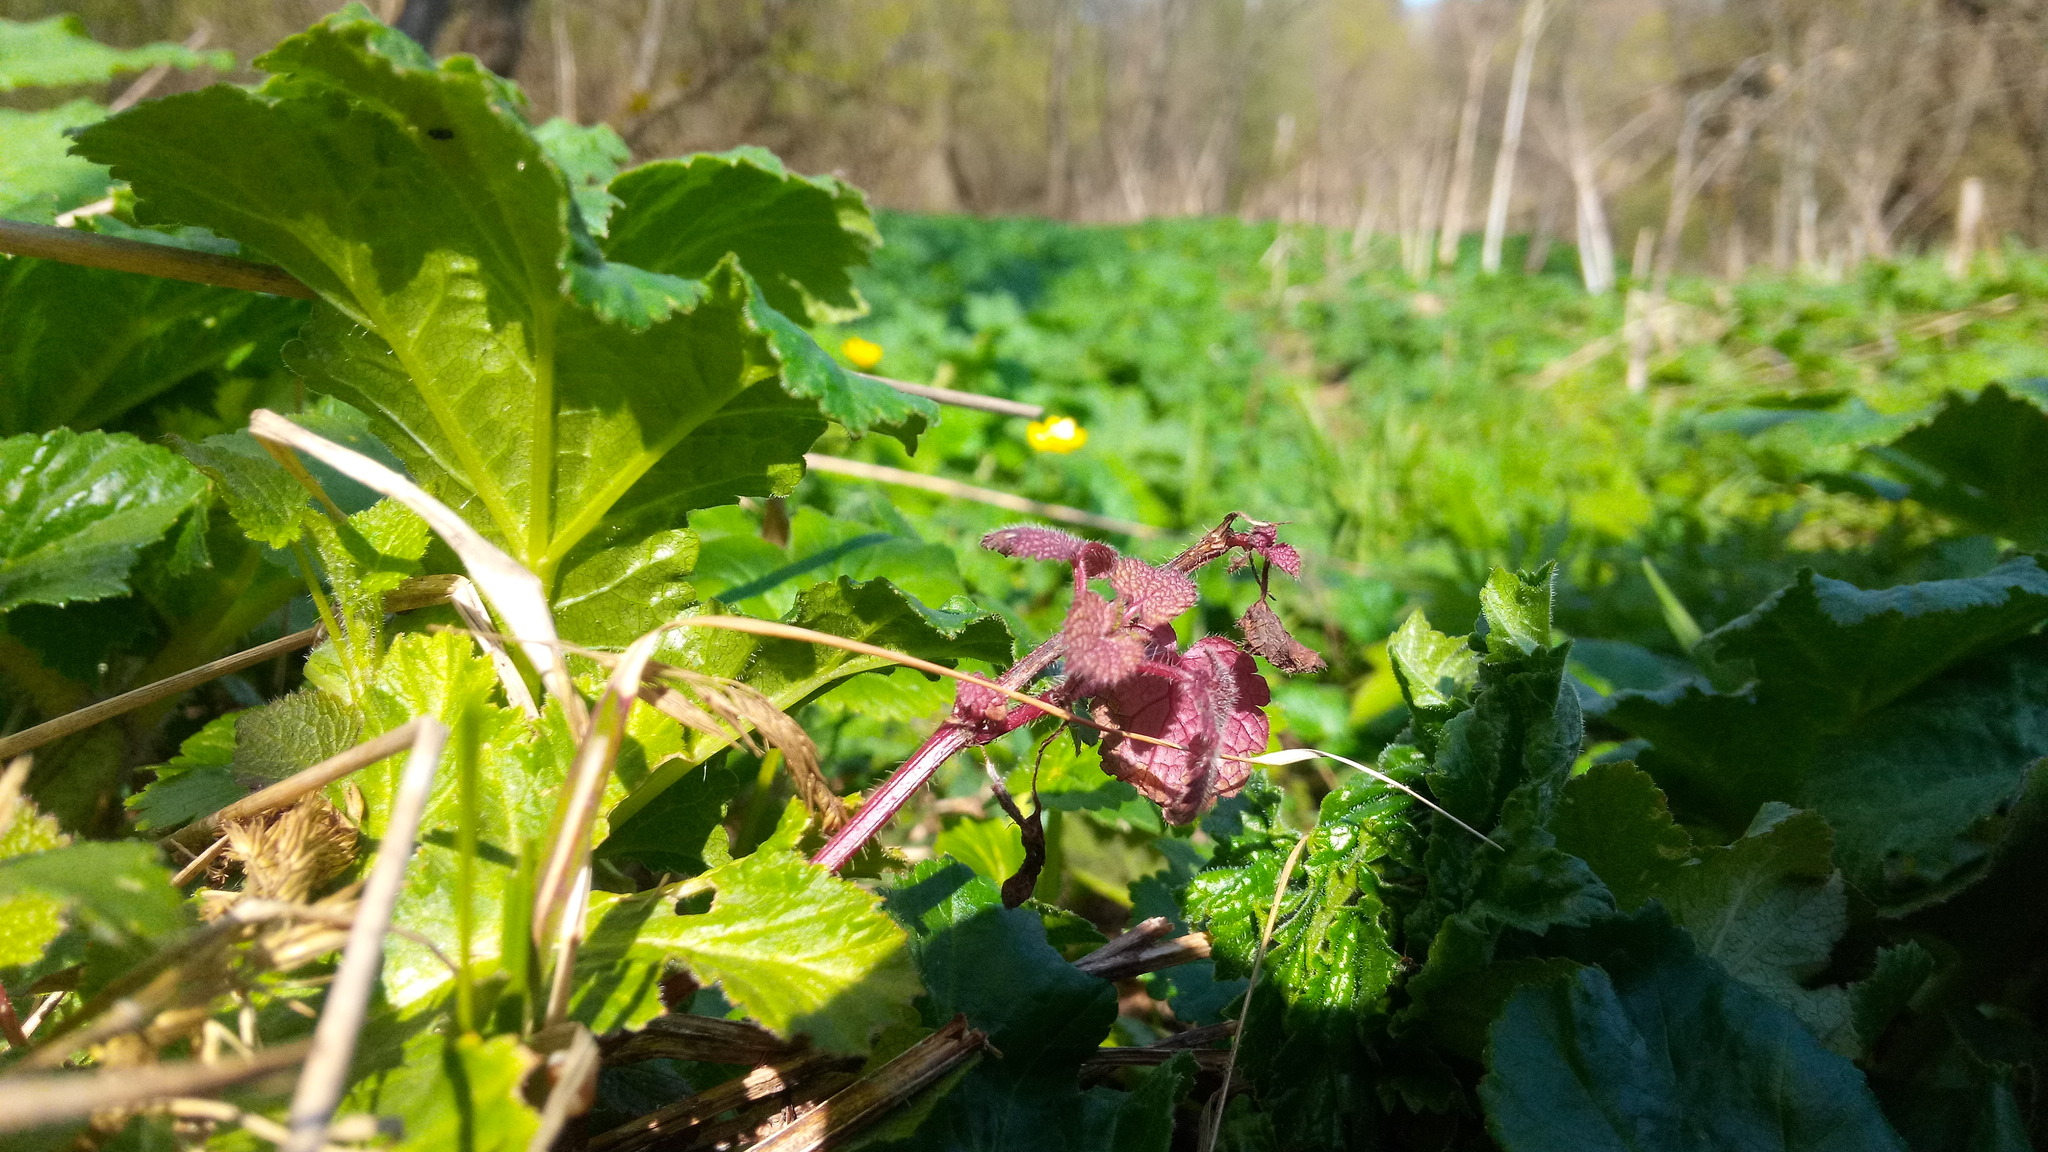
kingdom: Plantae
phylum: Tracheophyta
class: Magnoliopsida
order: Lamiales
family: Lamiaceae
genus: Lamium
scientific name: Lamium purpureum
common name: Red dead-nettle
